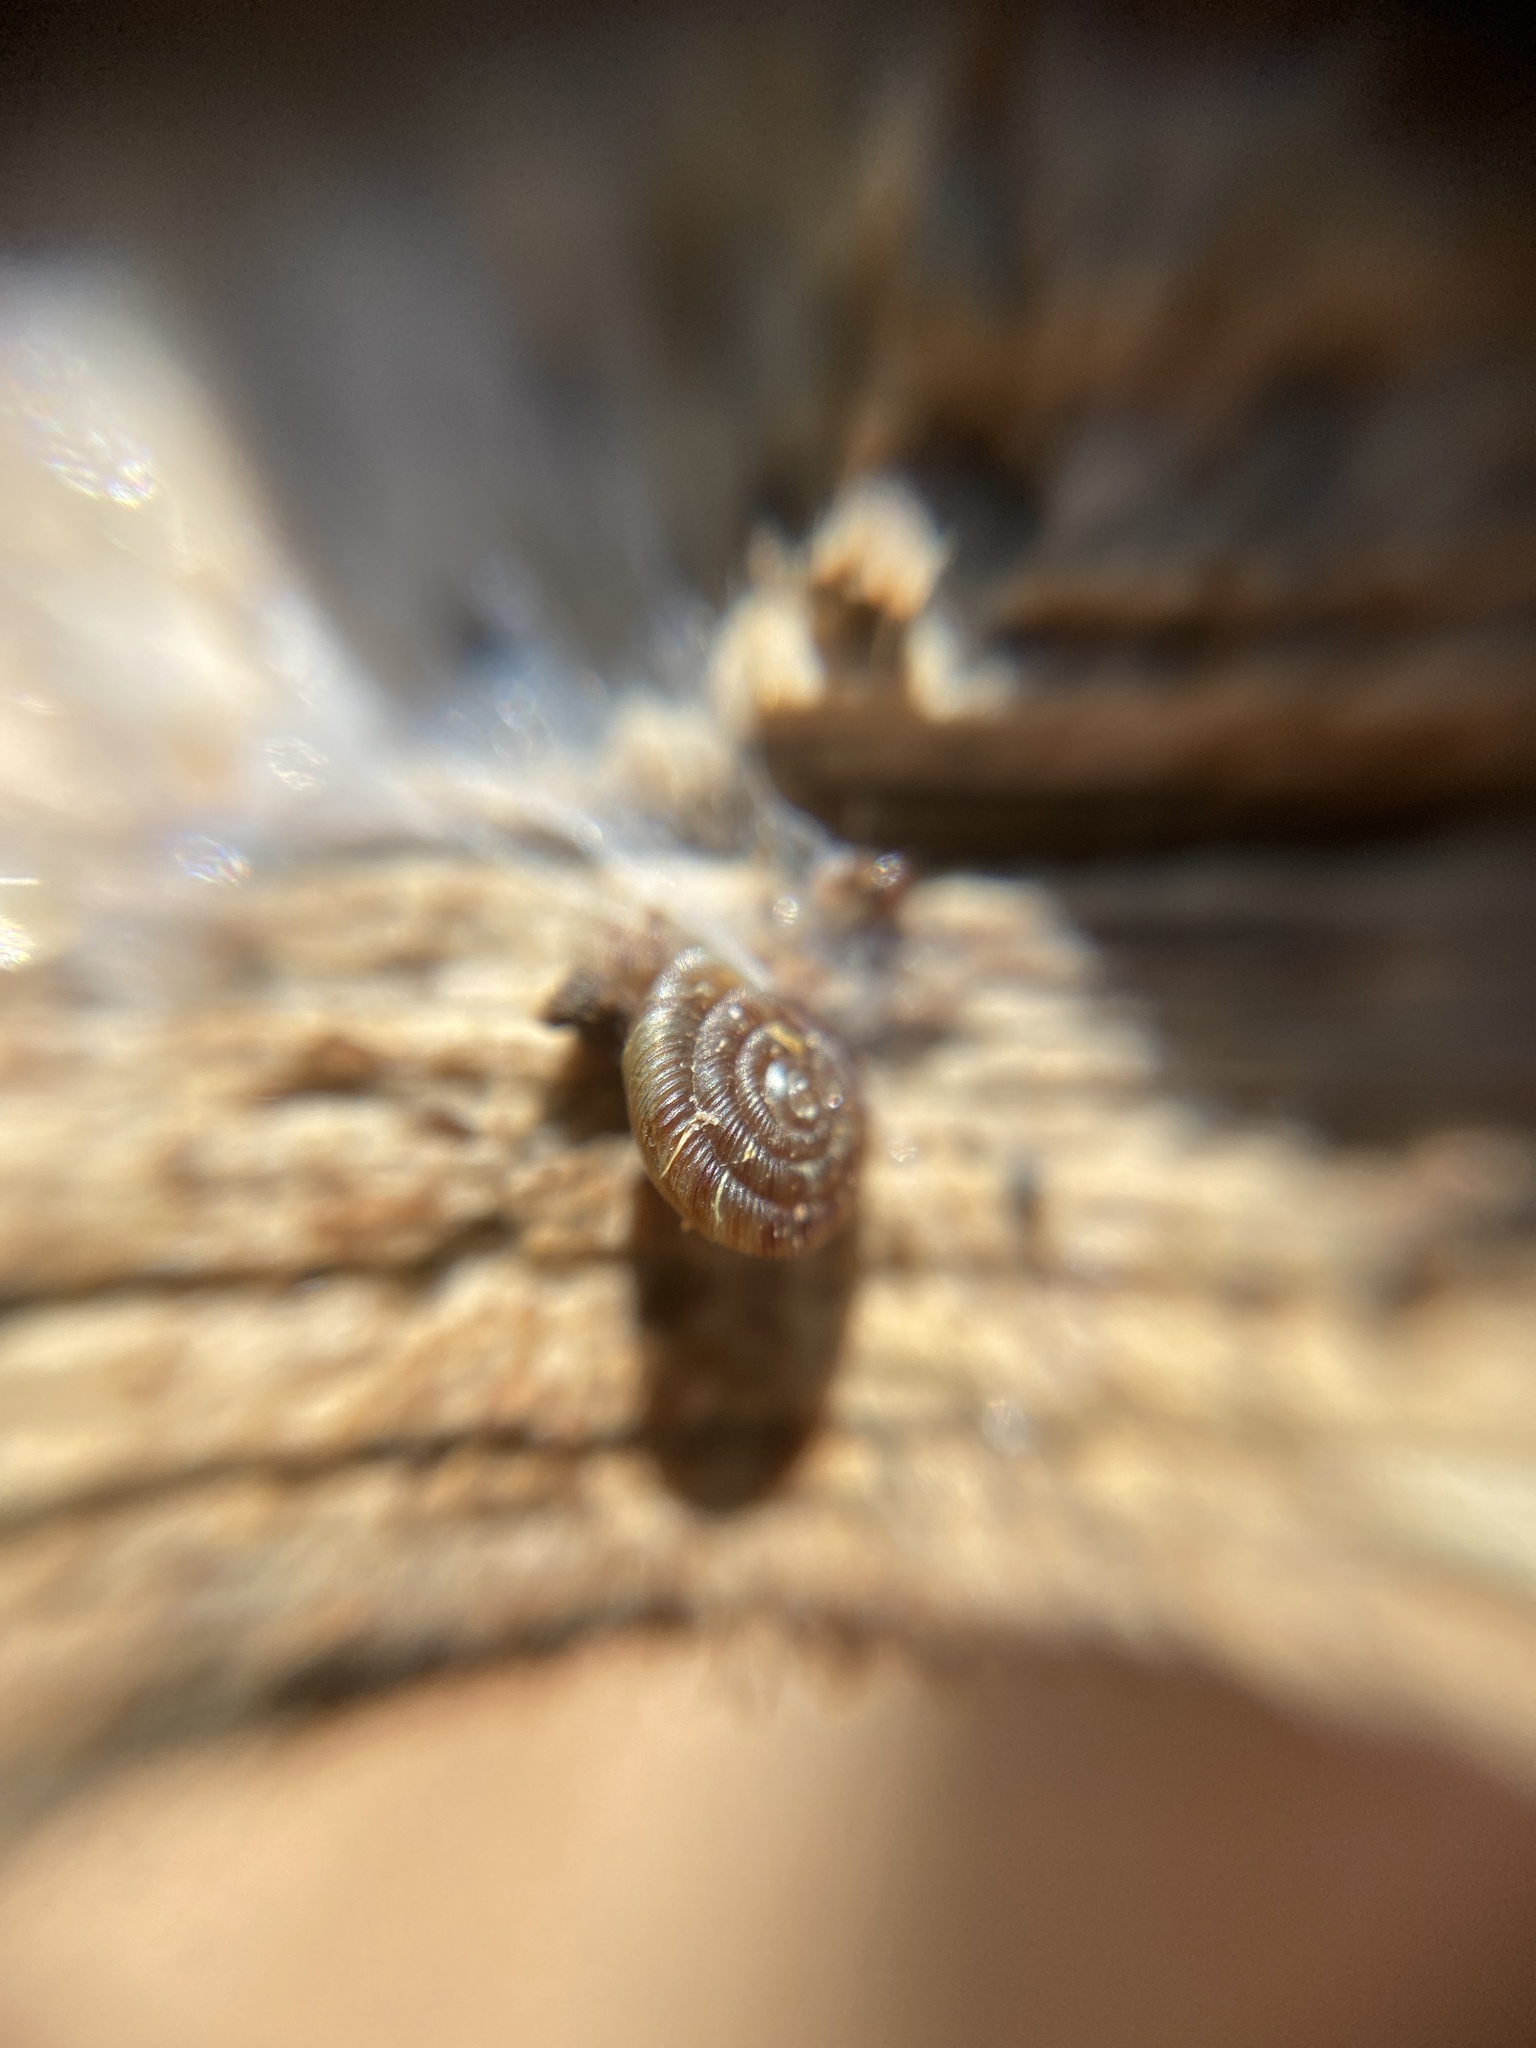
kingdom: Animalia
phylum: Mollusca
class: Gastropoda
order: Stylommatophora
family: Discidae
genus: Discus
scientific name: Discus rotundatus
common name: Rounded snail
